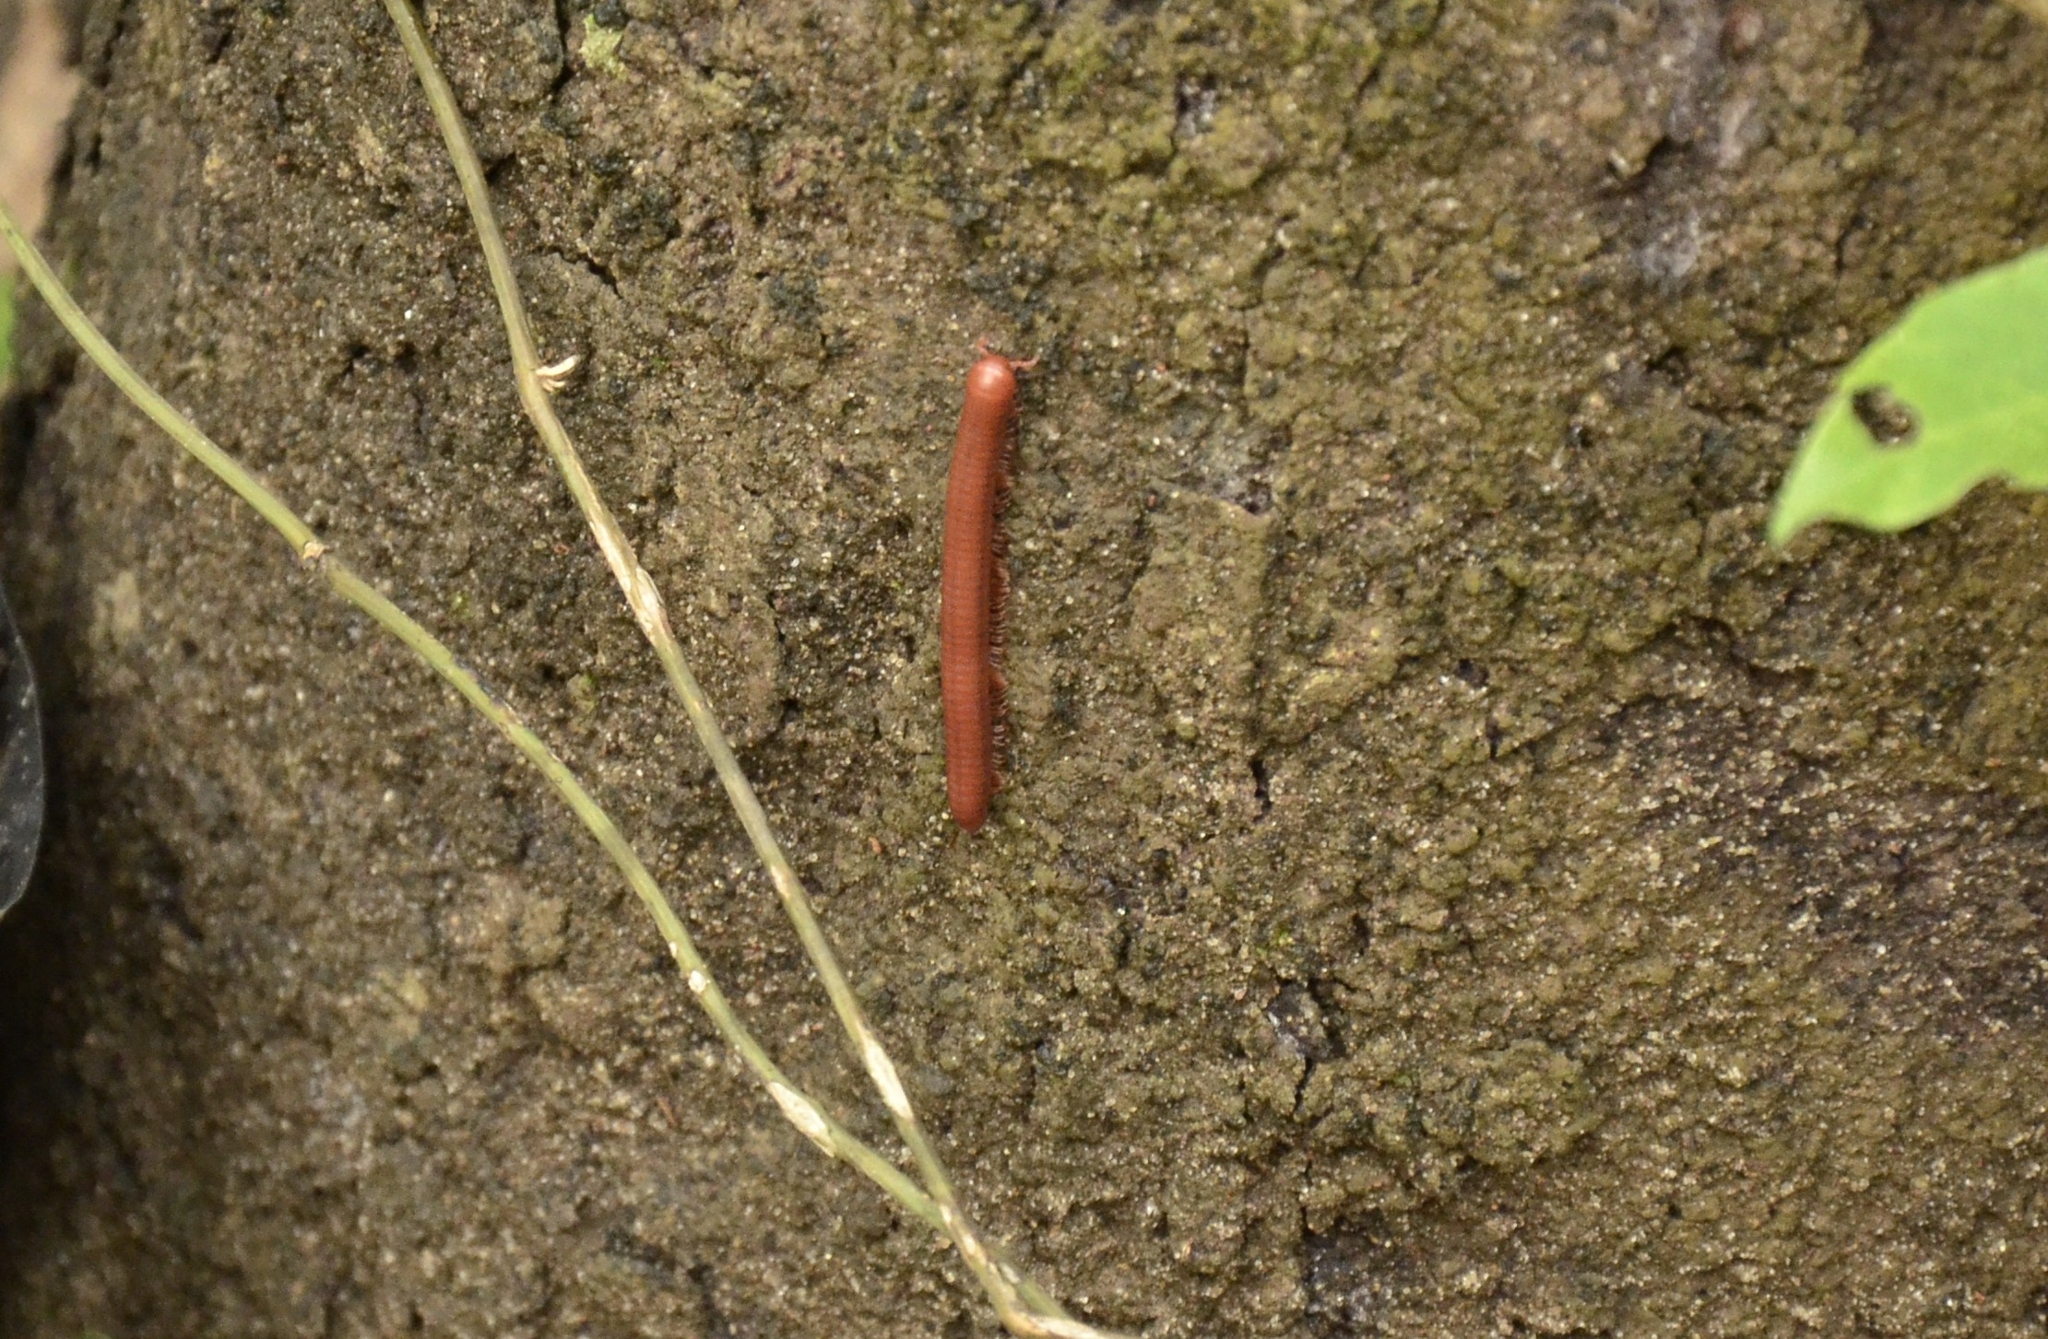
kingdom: Animalia
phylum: Arthropoda
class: Diplopoda
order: Spirobolida
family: Pachybolidae
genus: Trigoniulus
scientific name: Trigoniulus corallinus
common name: Millipede
